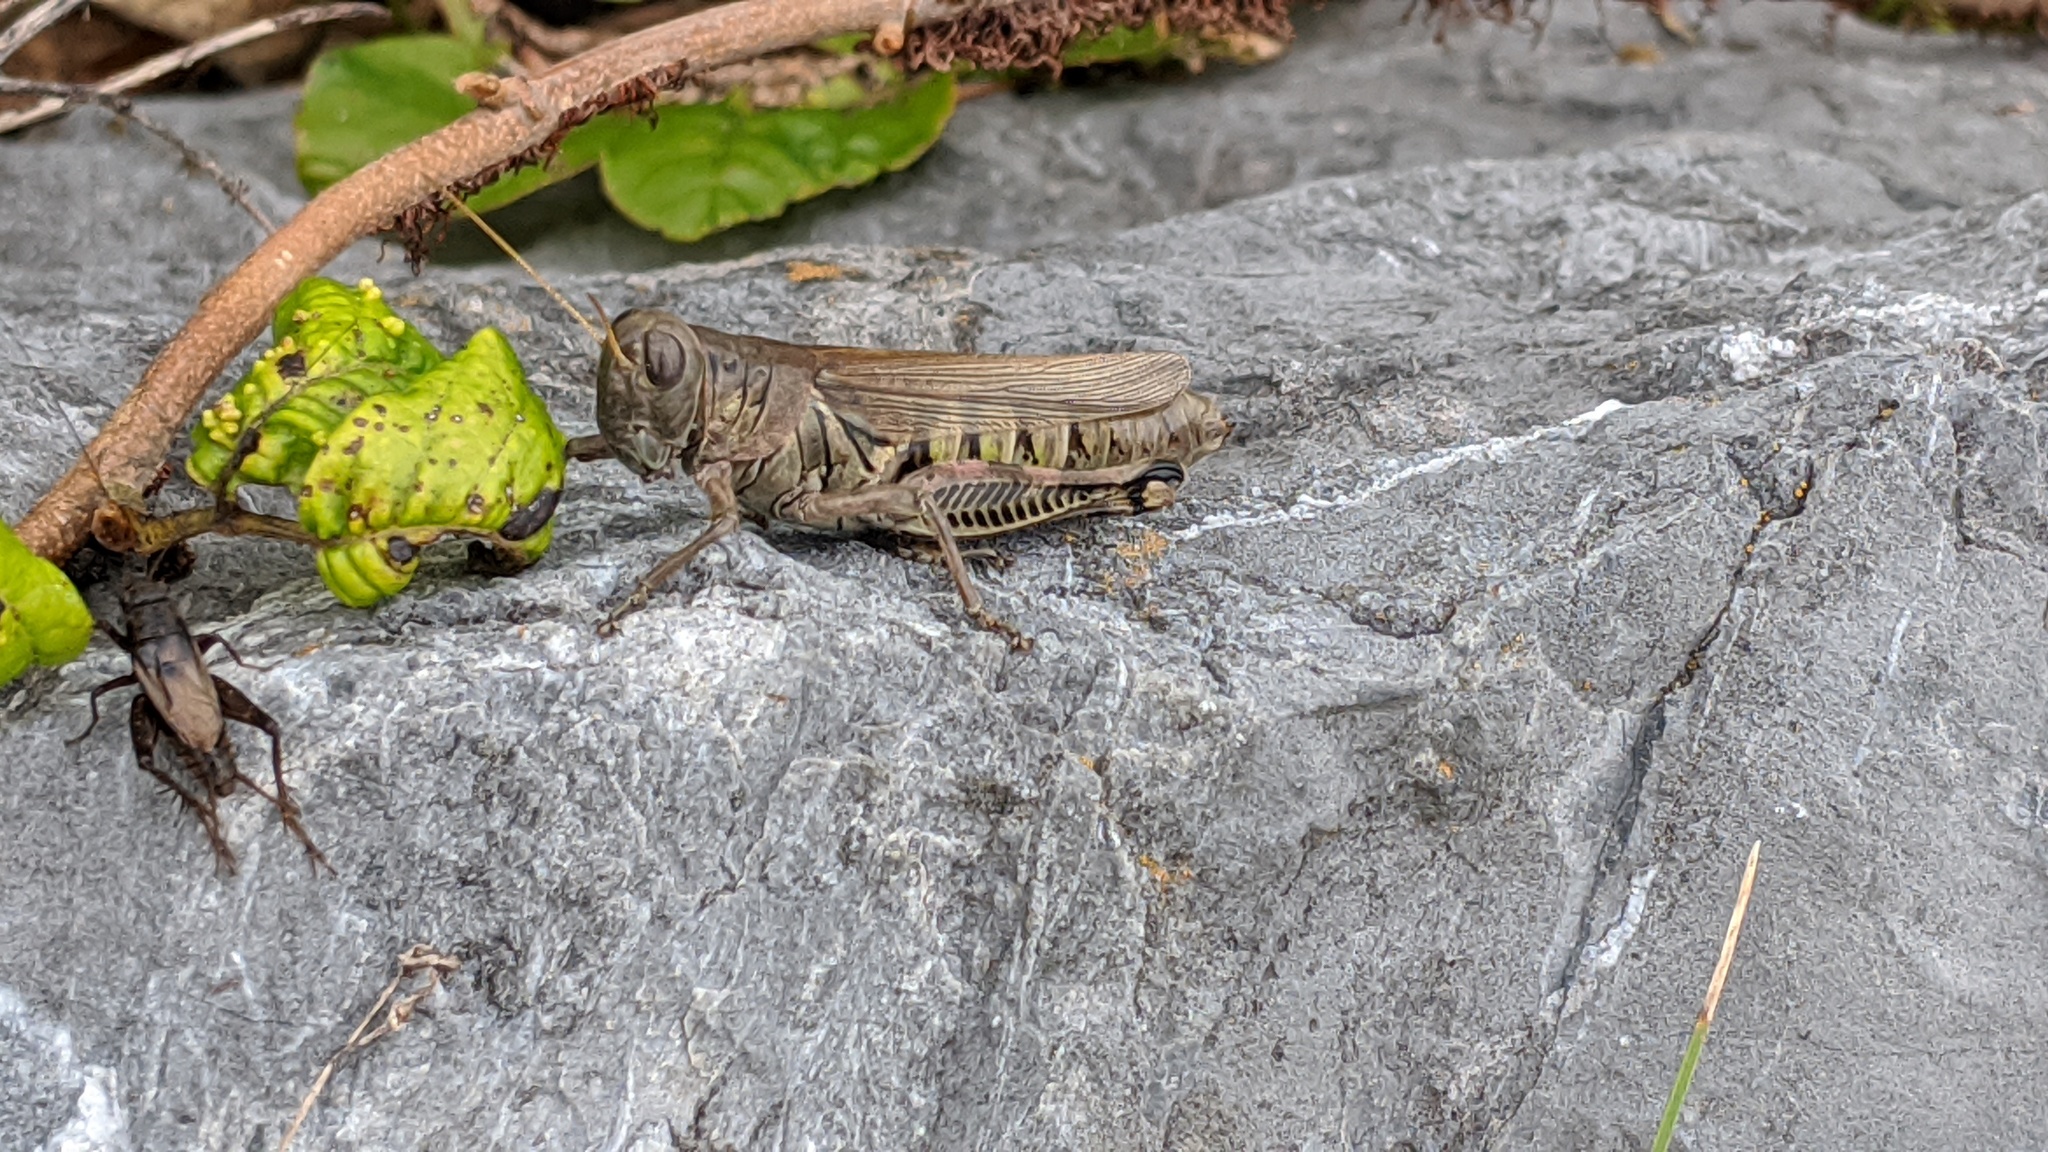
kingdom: Animalia
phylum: Arthropoda
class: Insecta
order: Orthoptera
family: Acrididae
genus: Melanoplus
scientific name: Melanoplus differentialis
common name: Differential grasshopper
